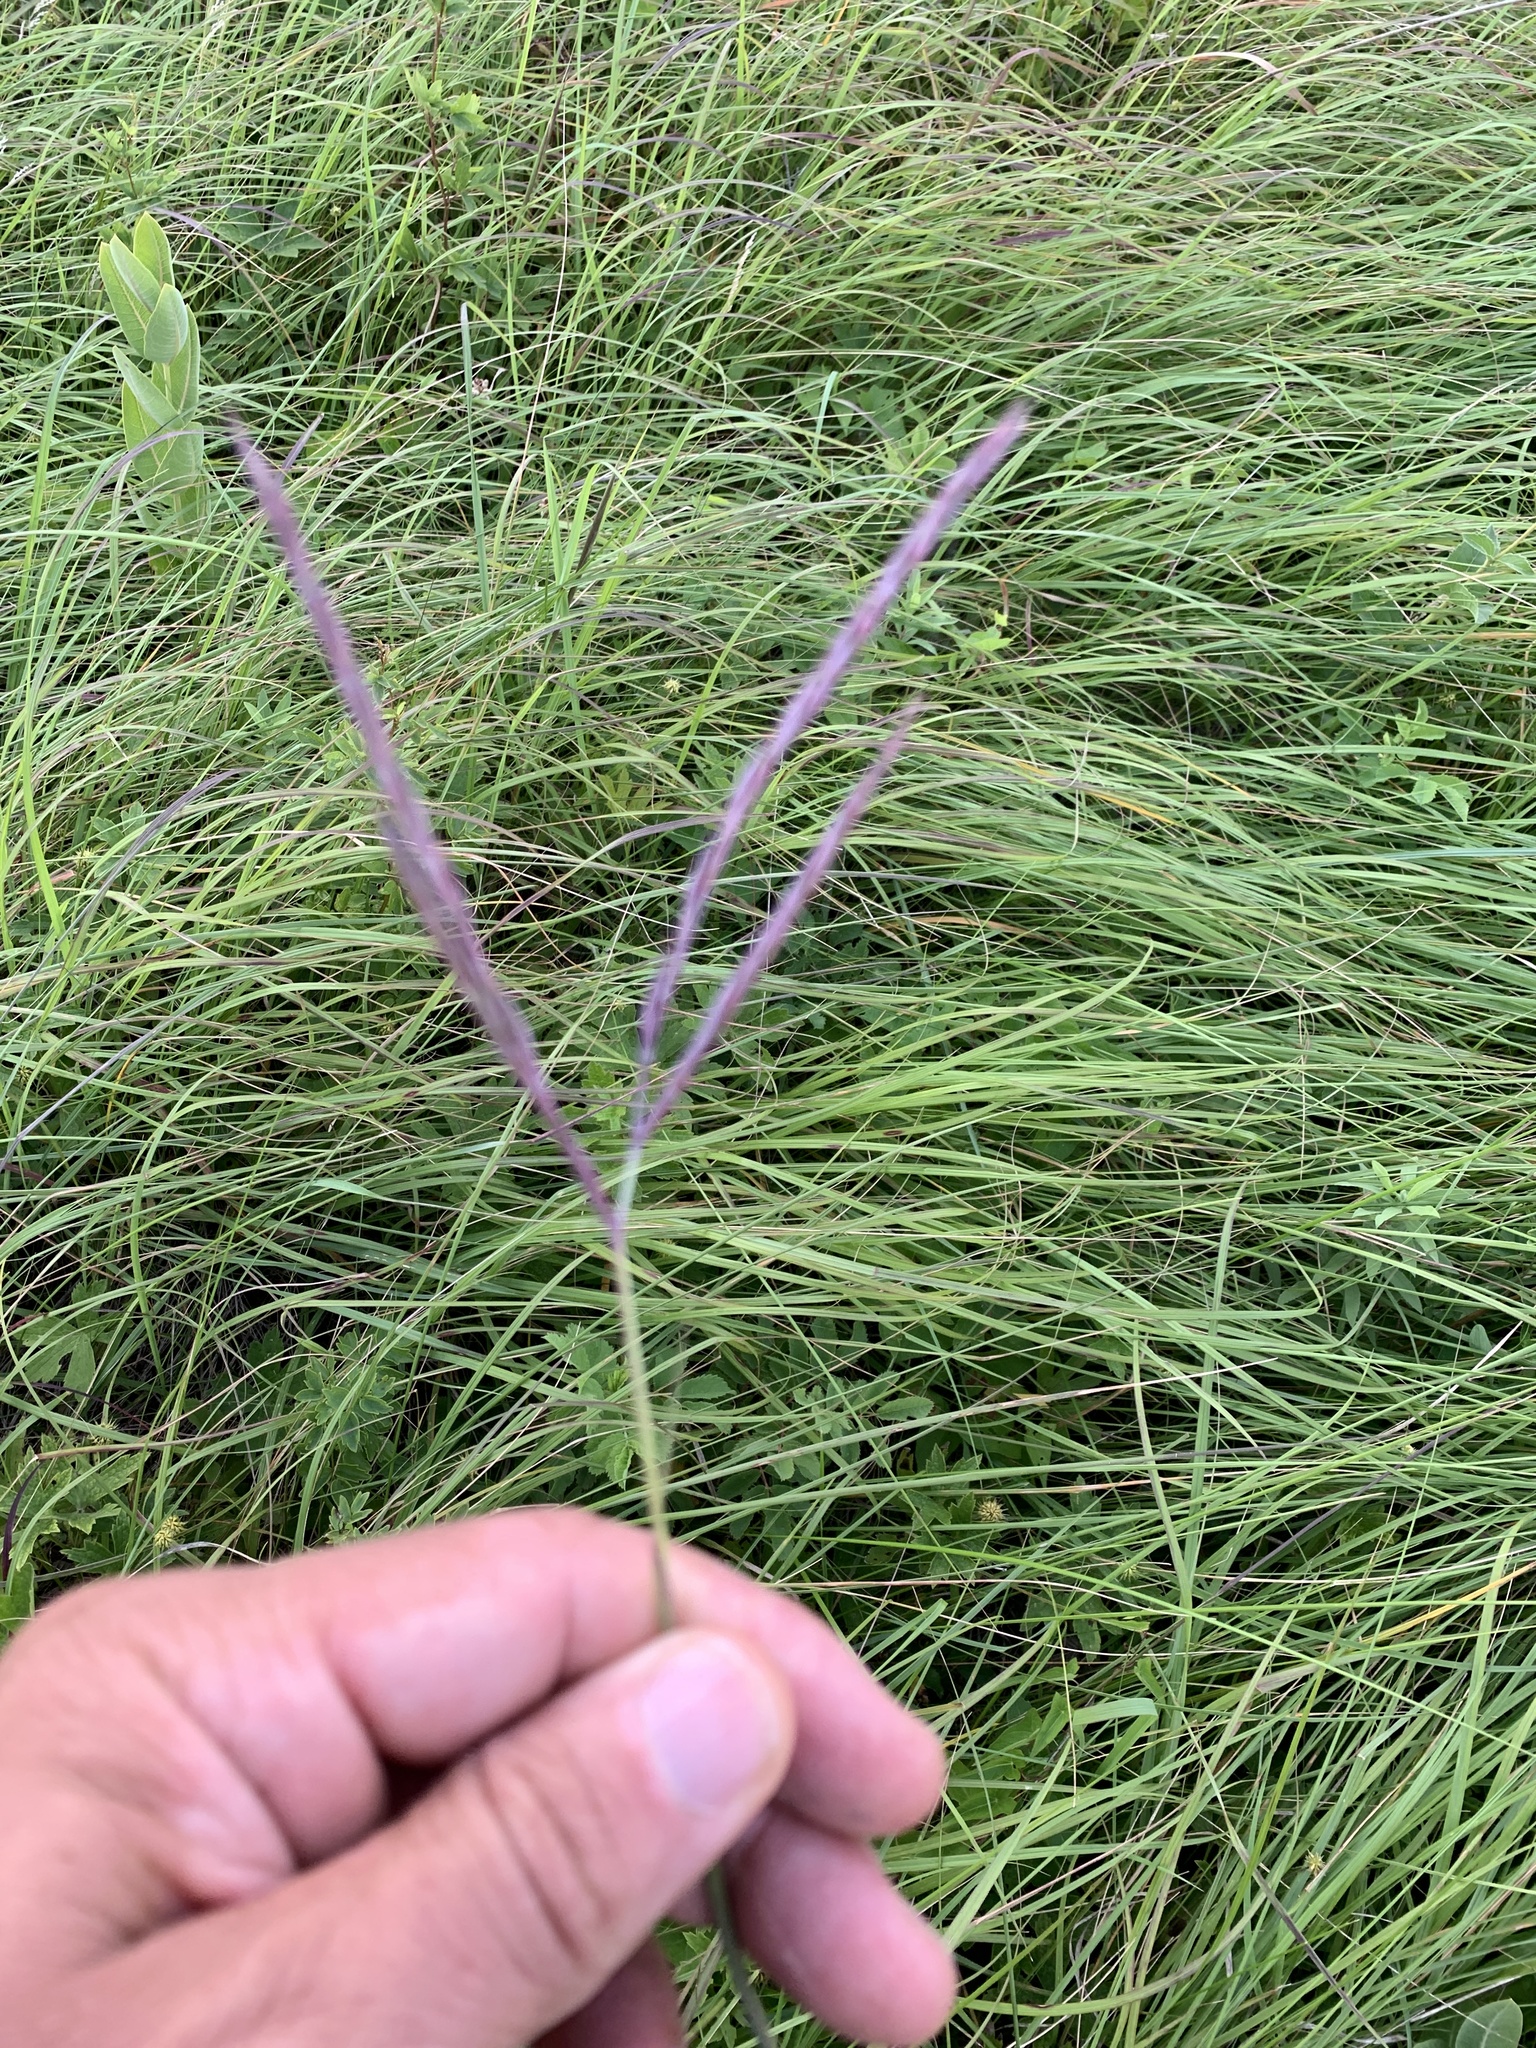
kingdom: Plantae
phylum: Tracheophyta
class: Liliopsida
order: Poales
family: Poaceae
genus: Andropogon
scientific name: Andropogon gerardi
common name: Big bluestem
